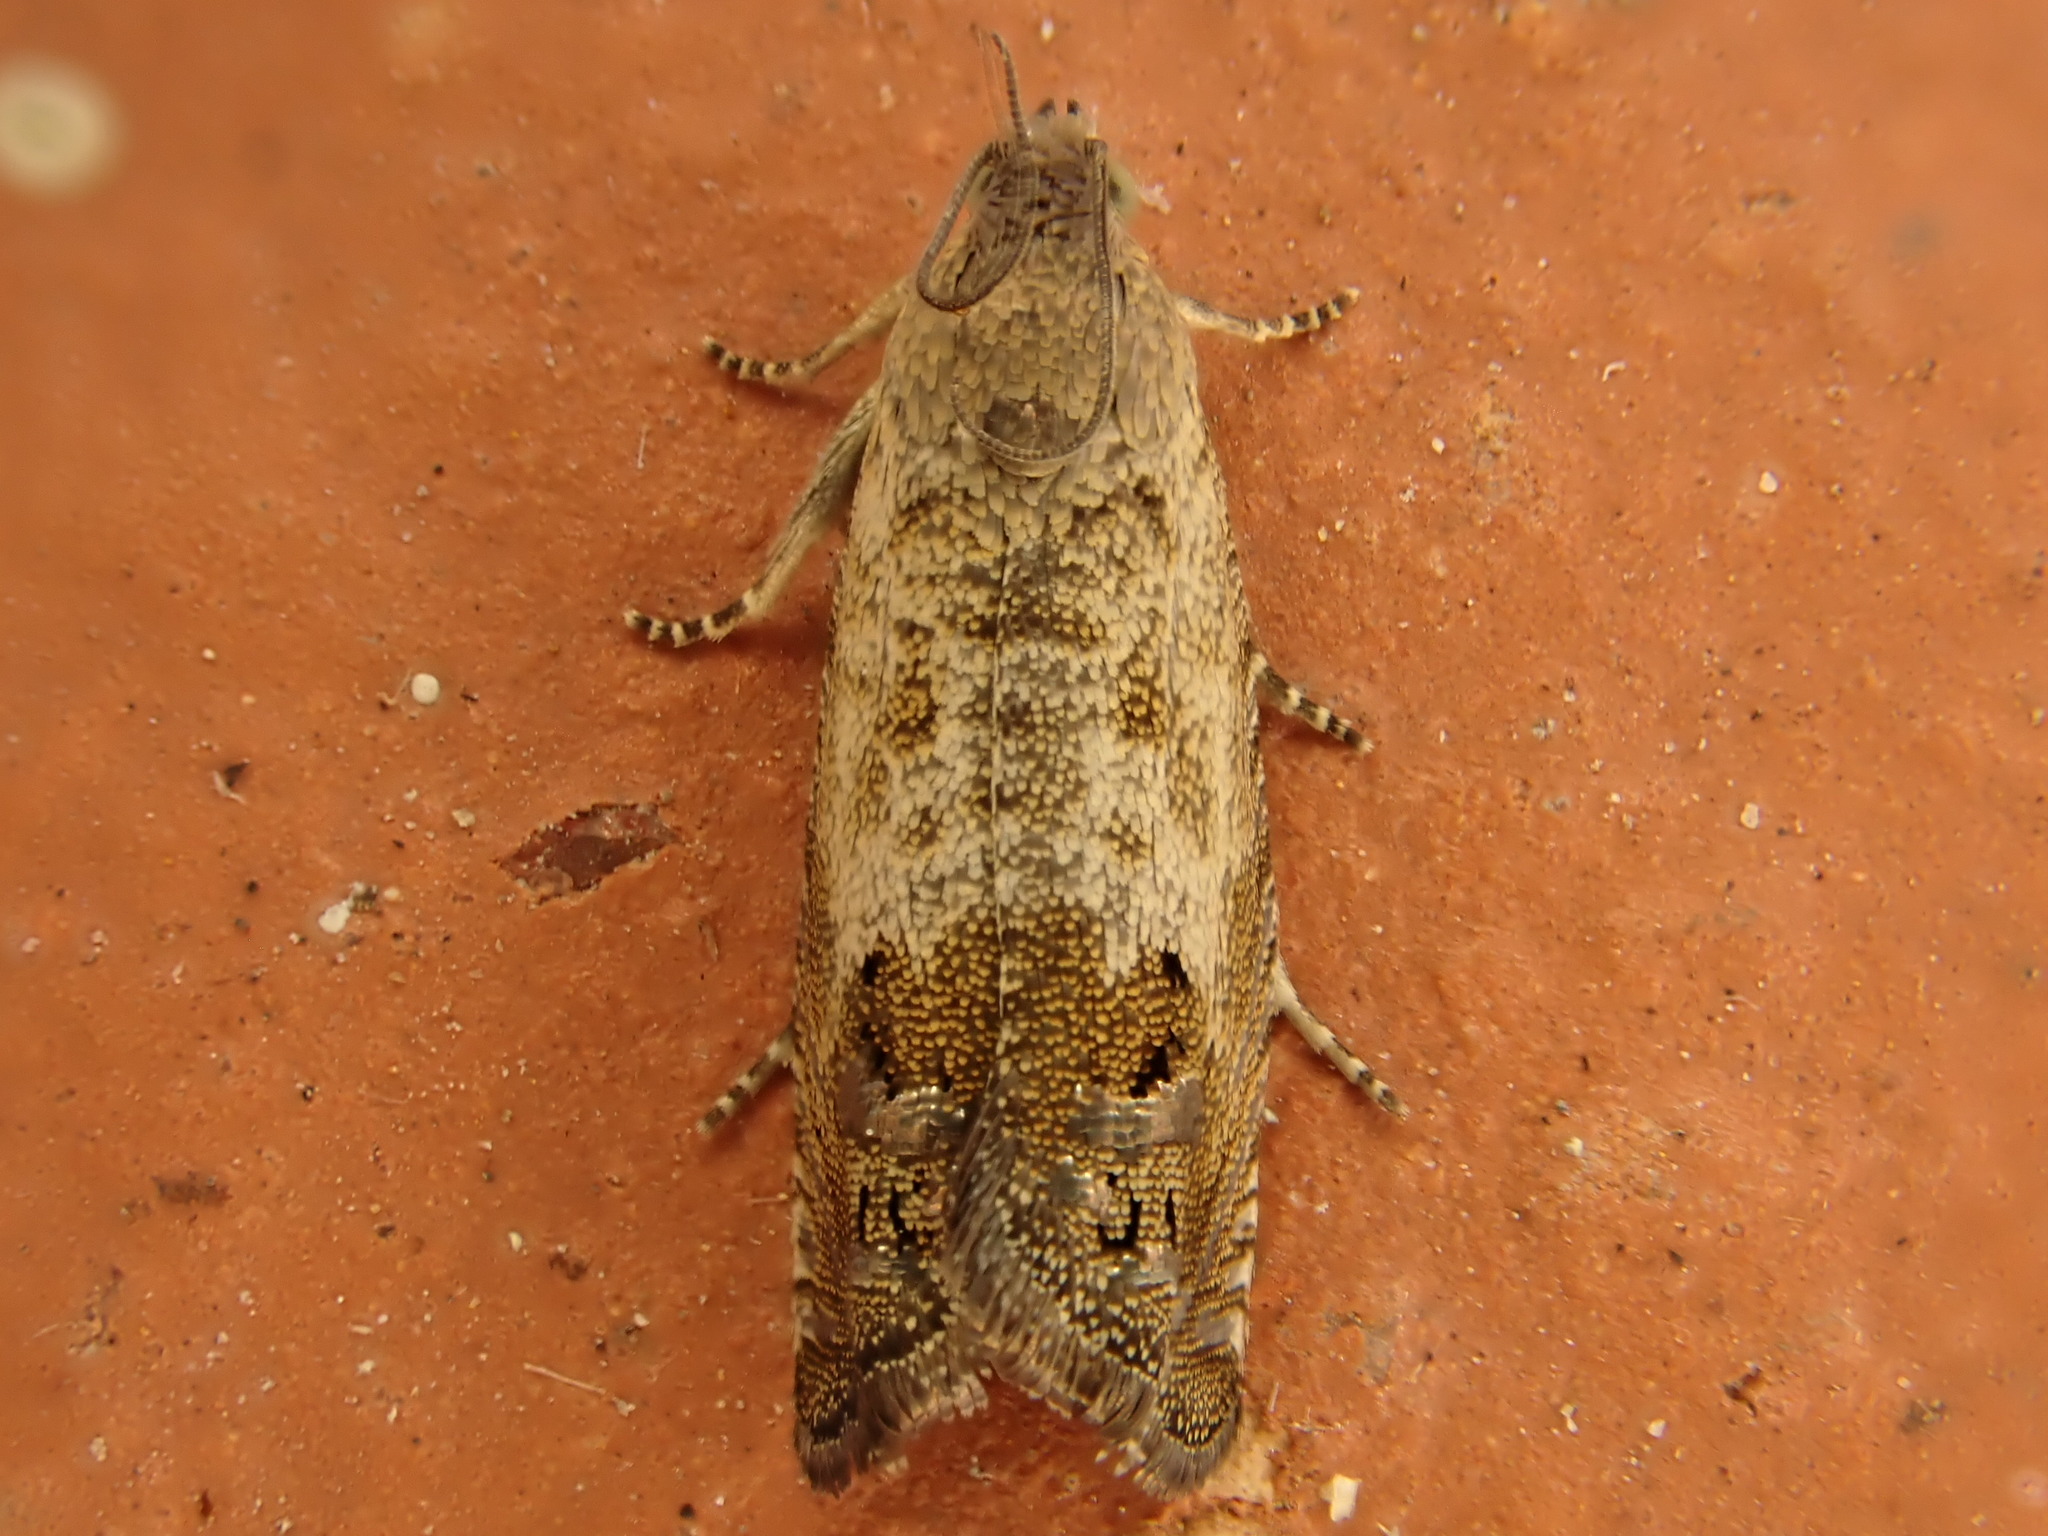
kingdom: Animalia
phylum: Arthropoda
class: Insecta
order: Lepidoptera
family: Tortricidae
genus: Cydia
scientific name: Cydia succedana
